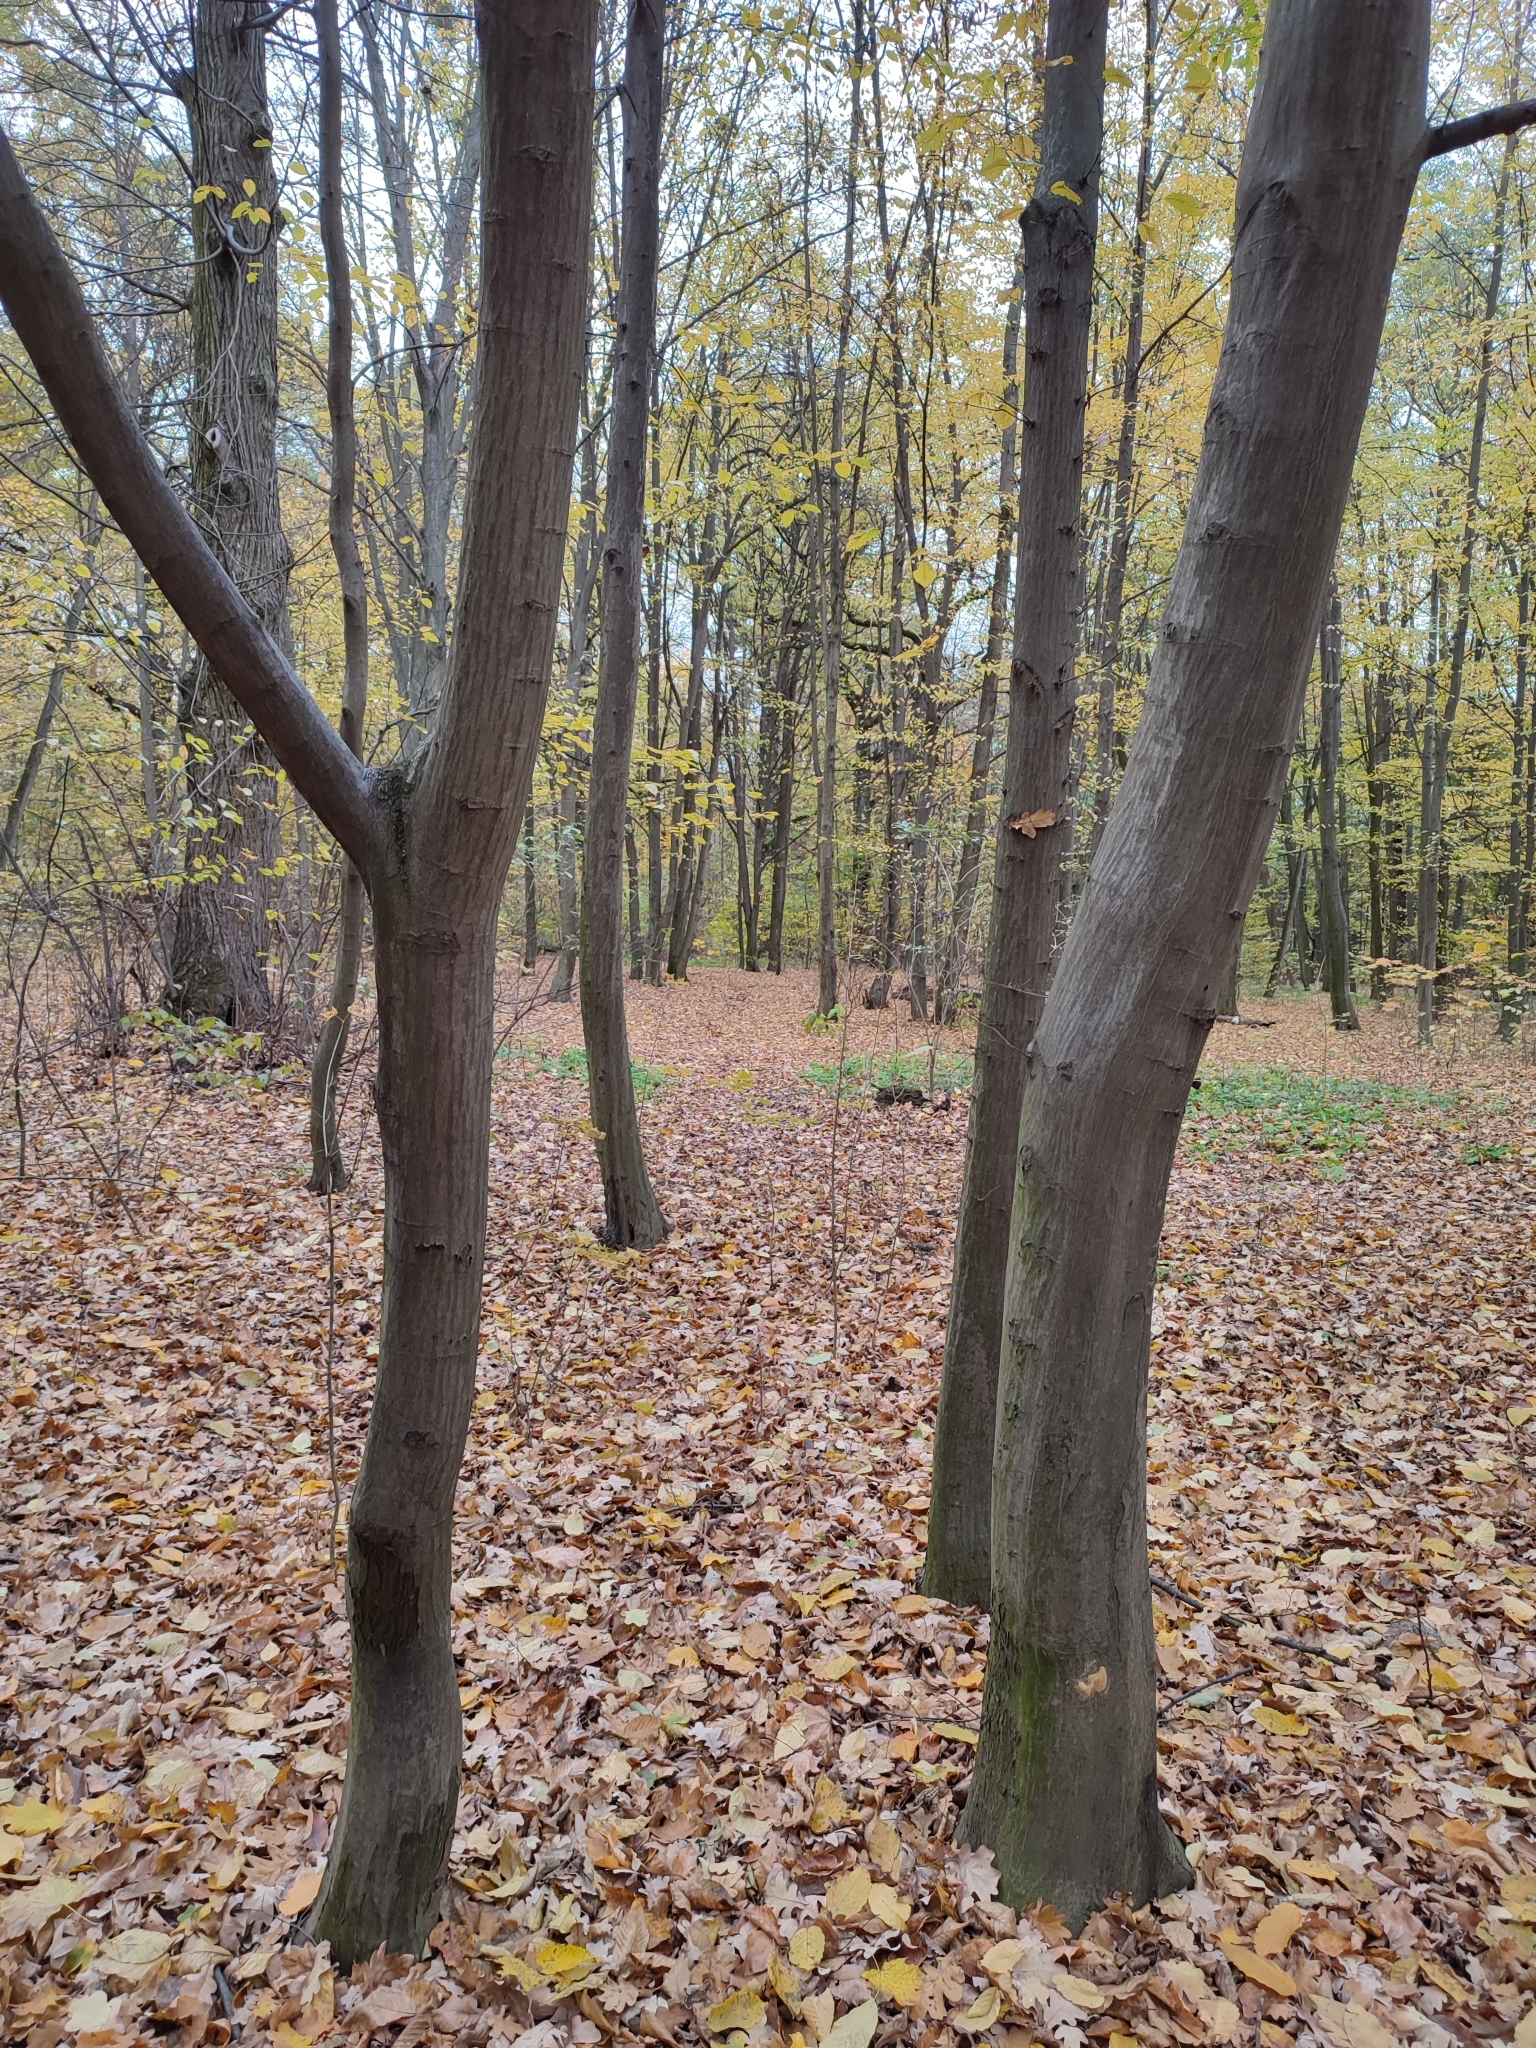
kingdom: Plantae
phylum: Tracheophyta
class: Magnoliopsida
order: Fagales
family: Betulaceae
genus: Carpinus
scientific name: Carpinus betulus
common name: Hornbeam
